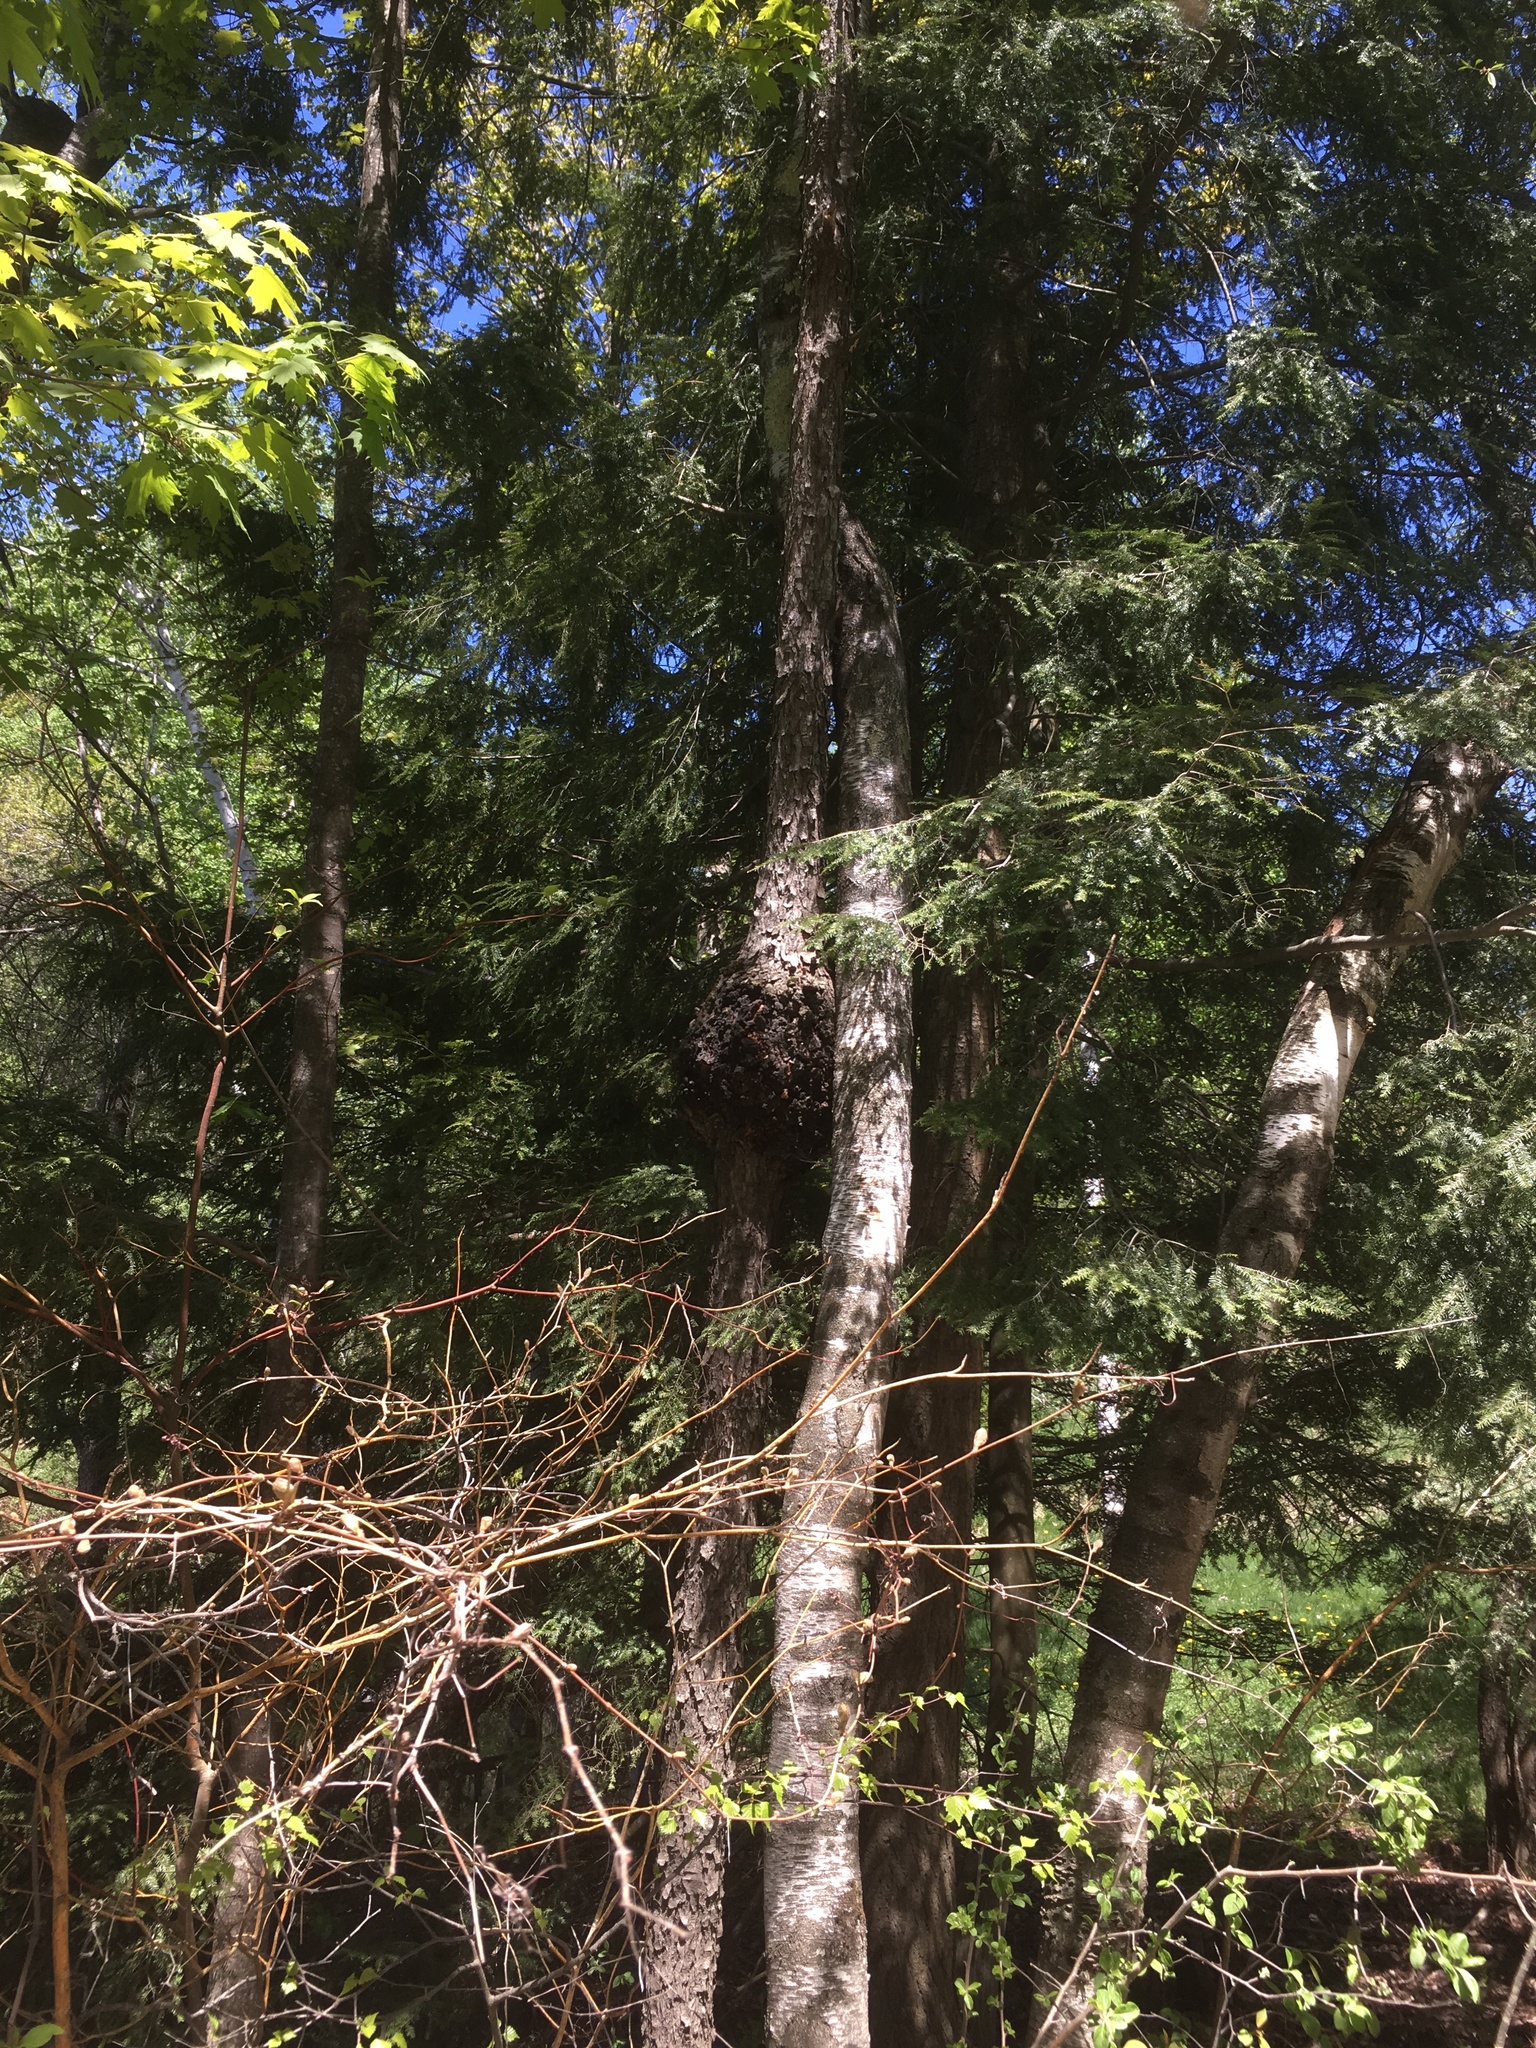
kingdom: Plantae
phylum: Tracheophyta
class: Magnoliopsida
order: Rosales
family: Rosaceae
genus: Prunus
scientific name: Prunus serotina
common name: Black cherry
